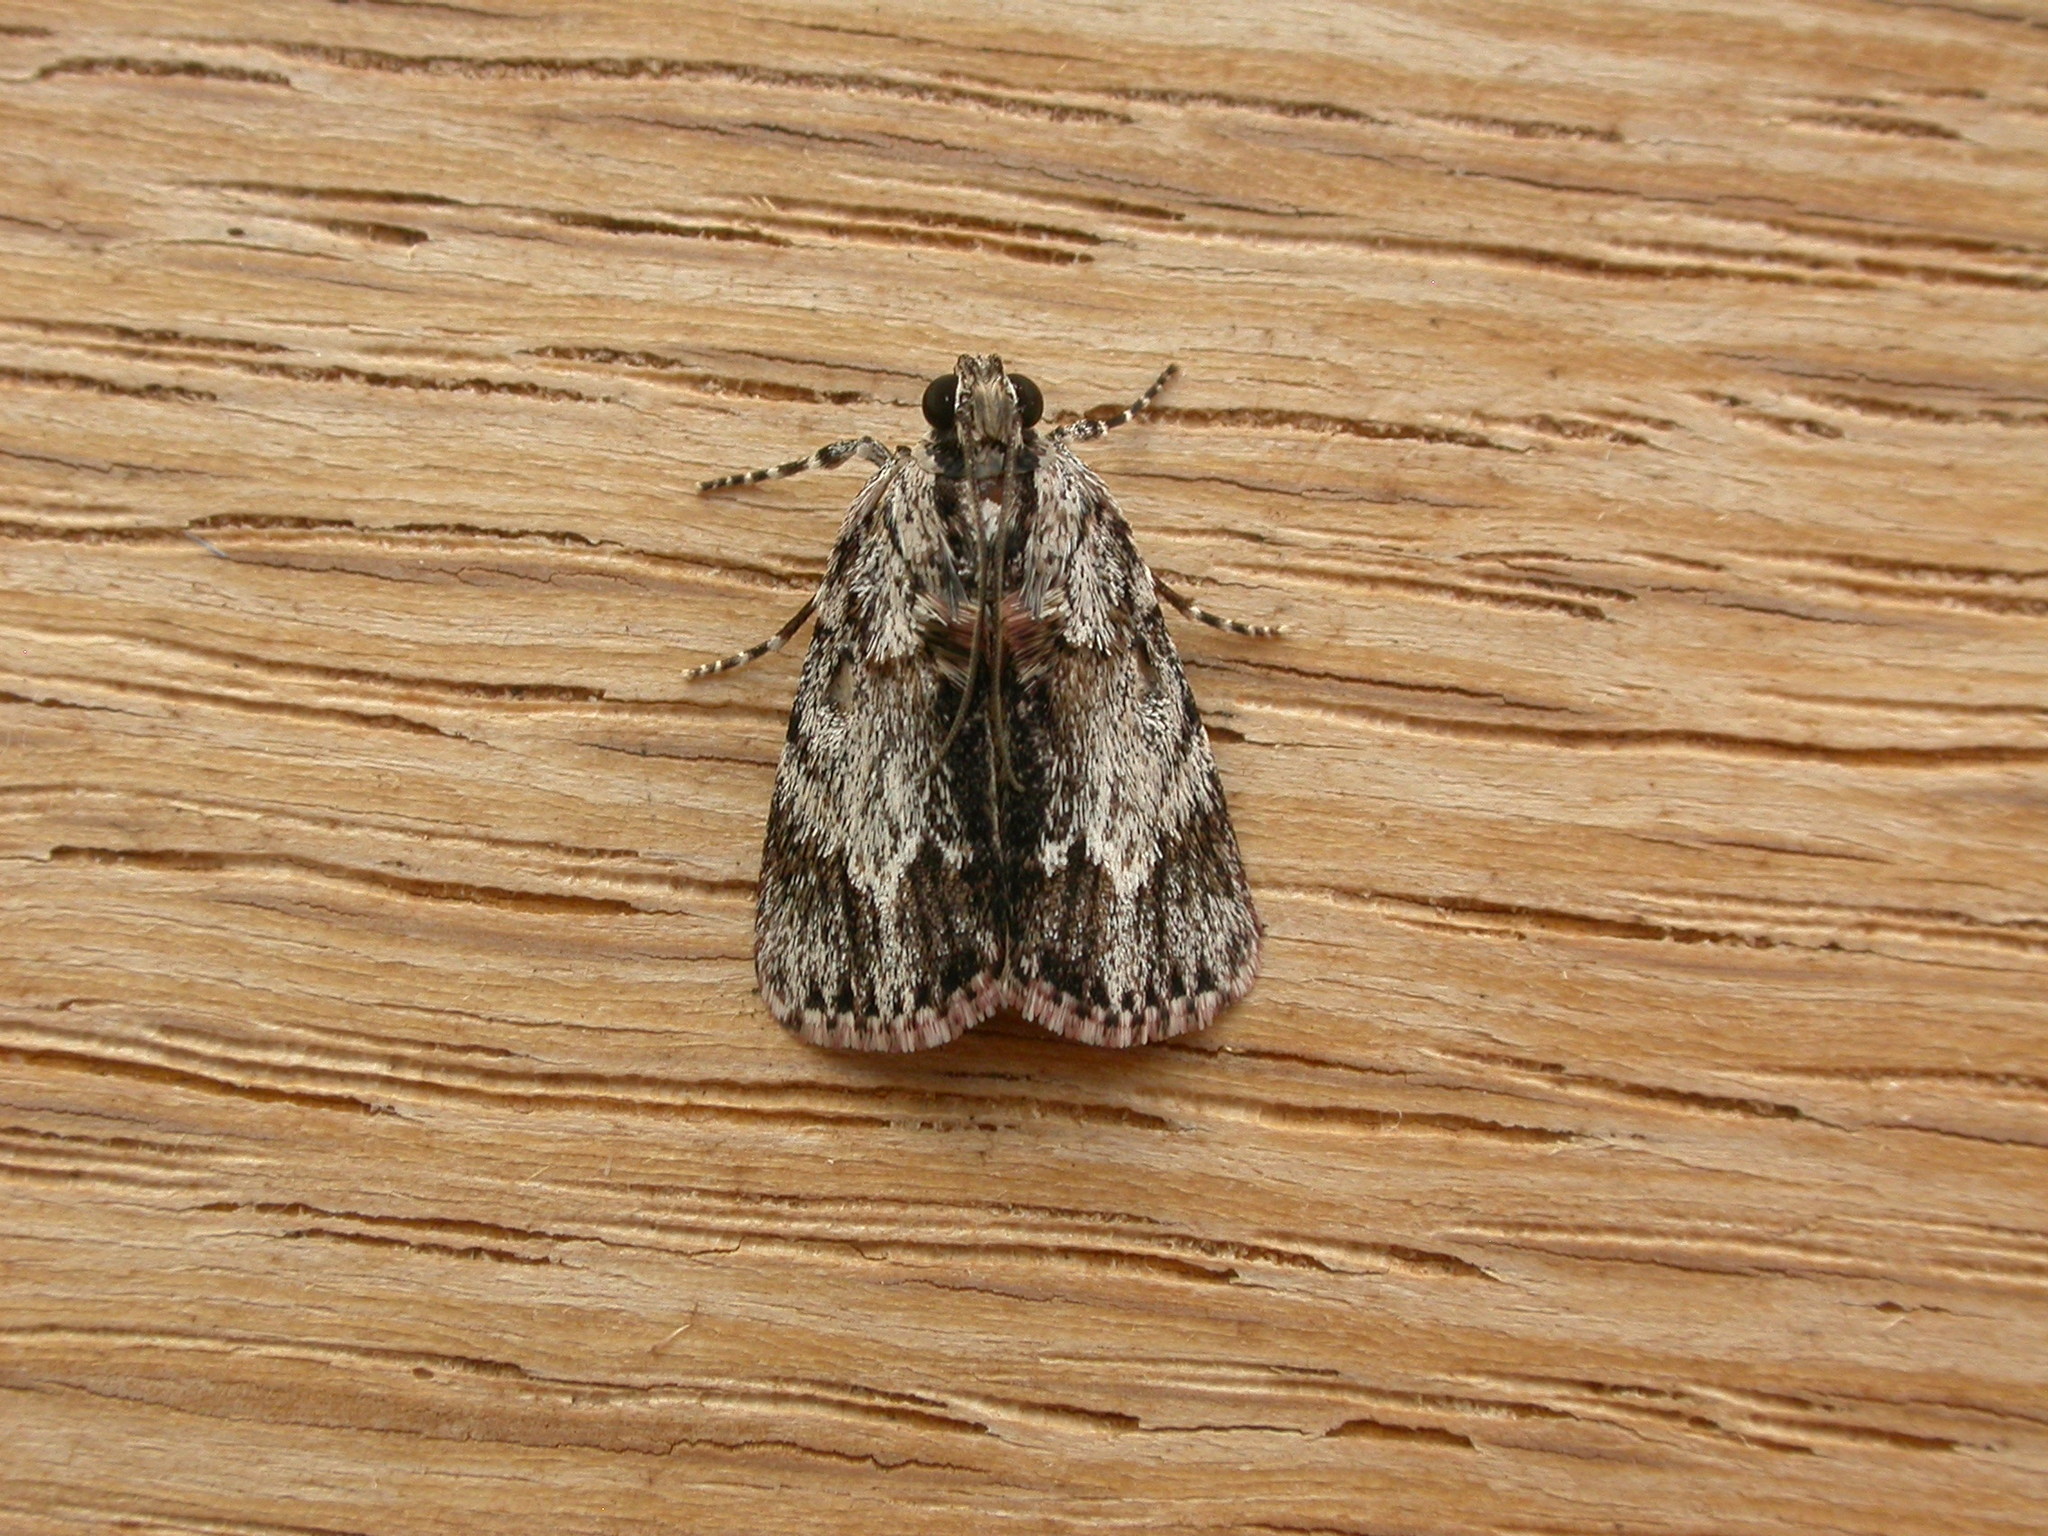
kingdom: Animalia
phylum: Arthropoda
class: Insecta
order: Lepidoptera
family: Pyralidae
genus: Spectrotrota
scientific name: Spectrotrota fimbrialis
